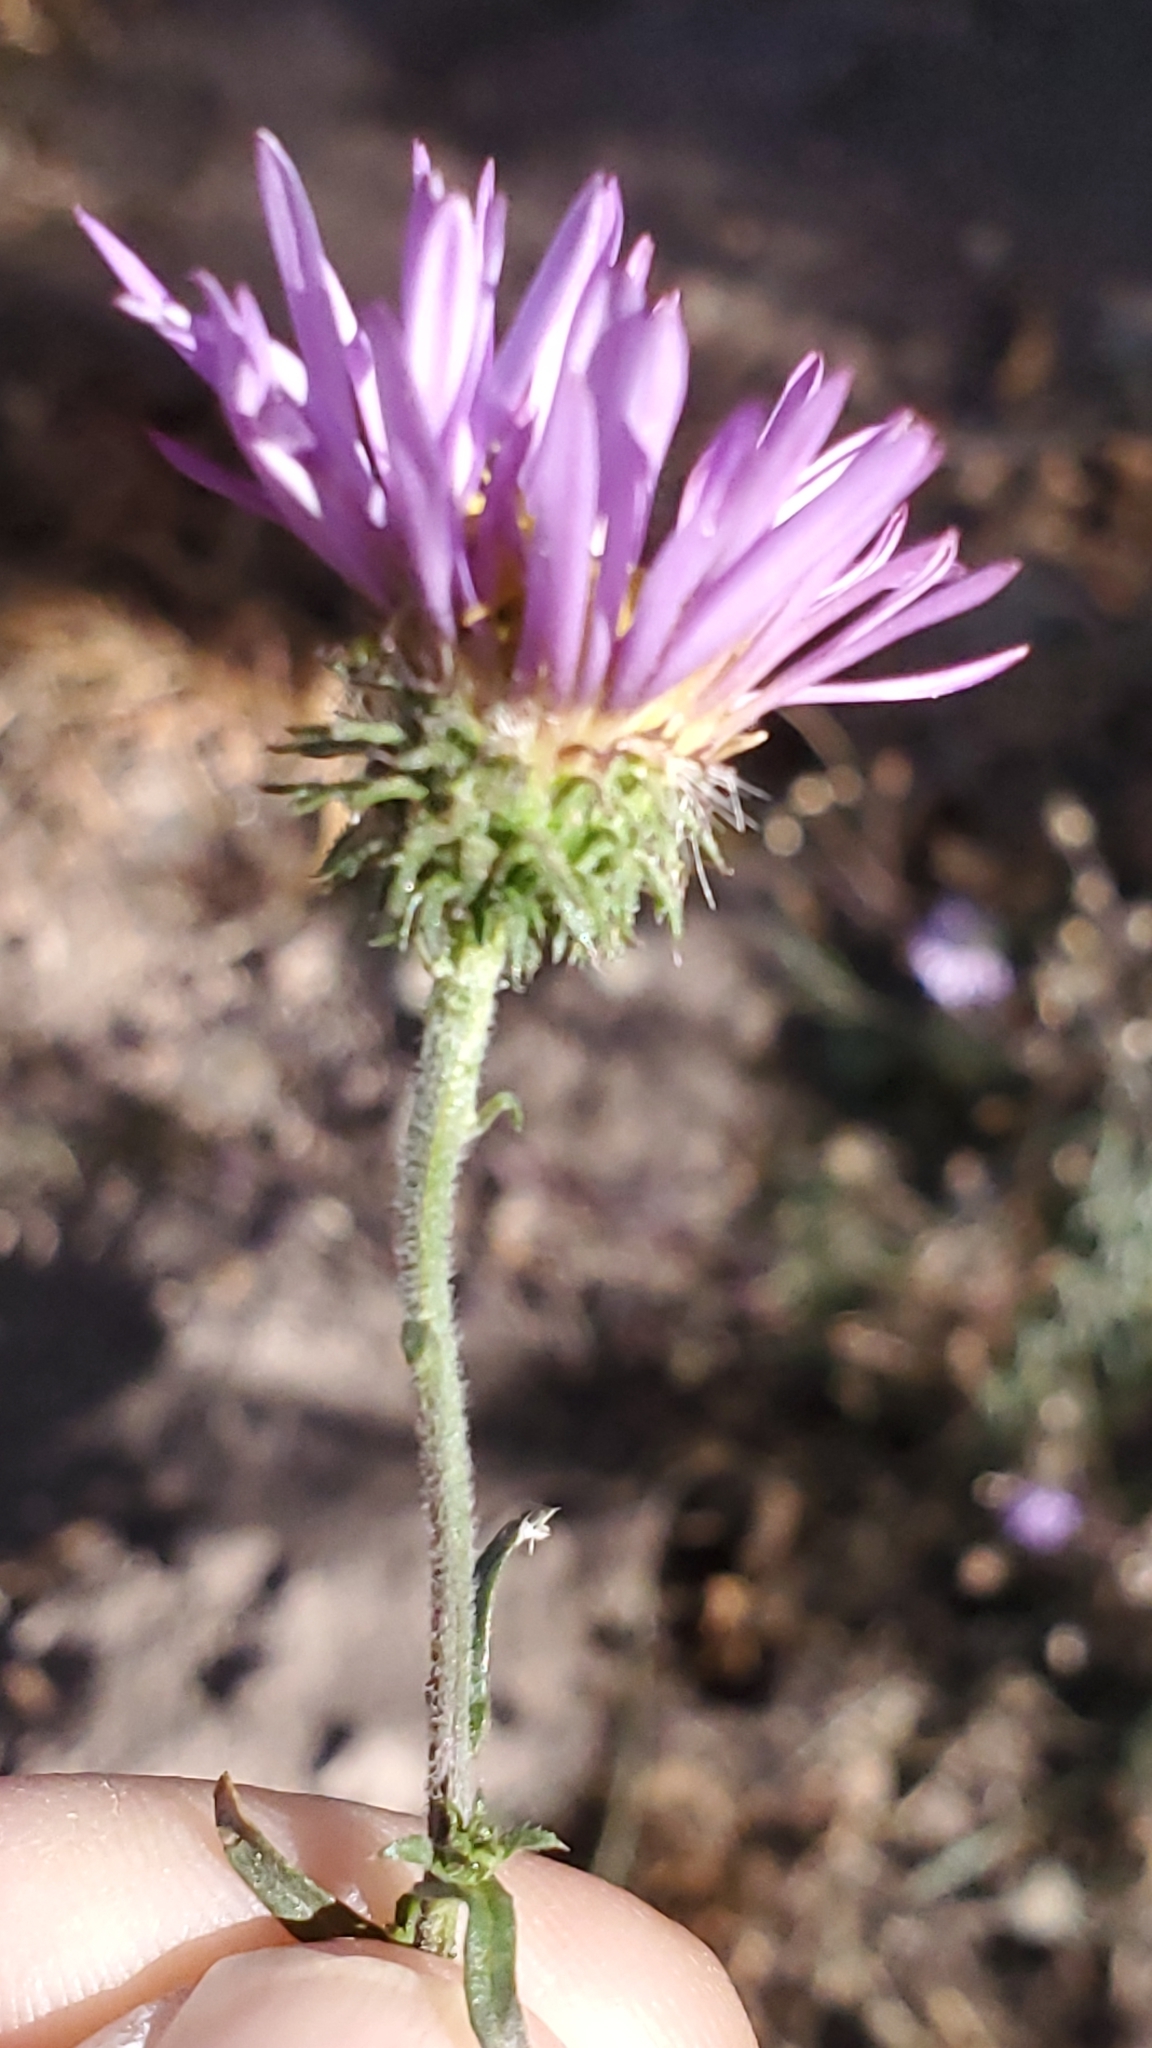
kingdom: Plantae
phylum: Tracheophyta
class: Magnoliopsida
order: Asterales
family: Asteraceae
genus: Dieteria
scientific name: Dieteria canescens
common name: Hoary-aster
